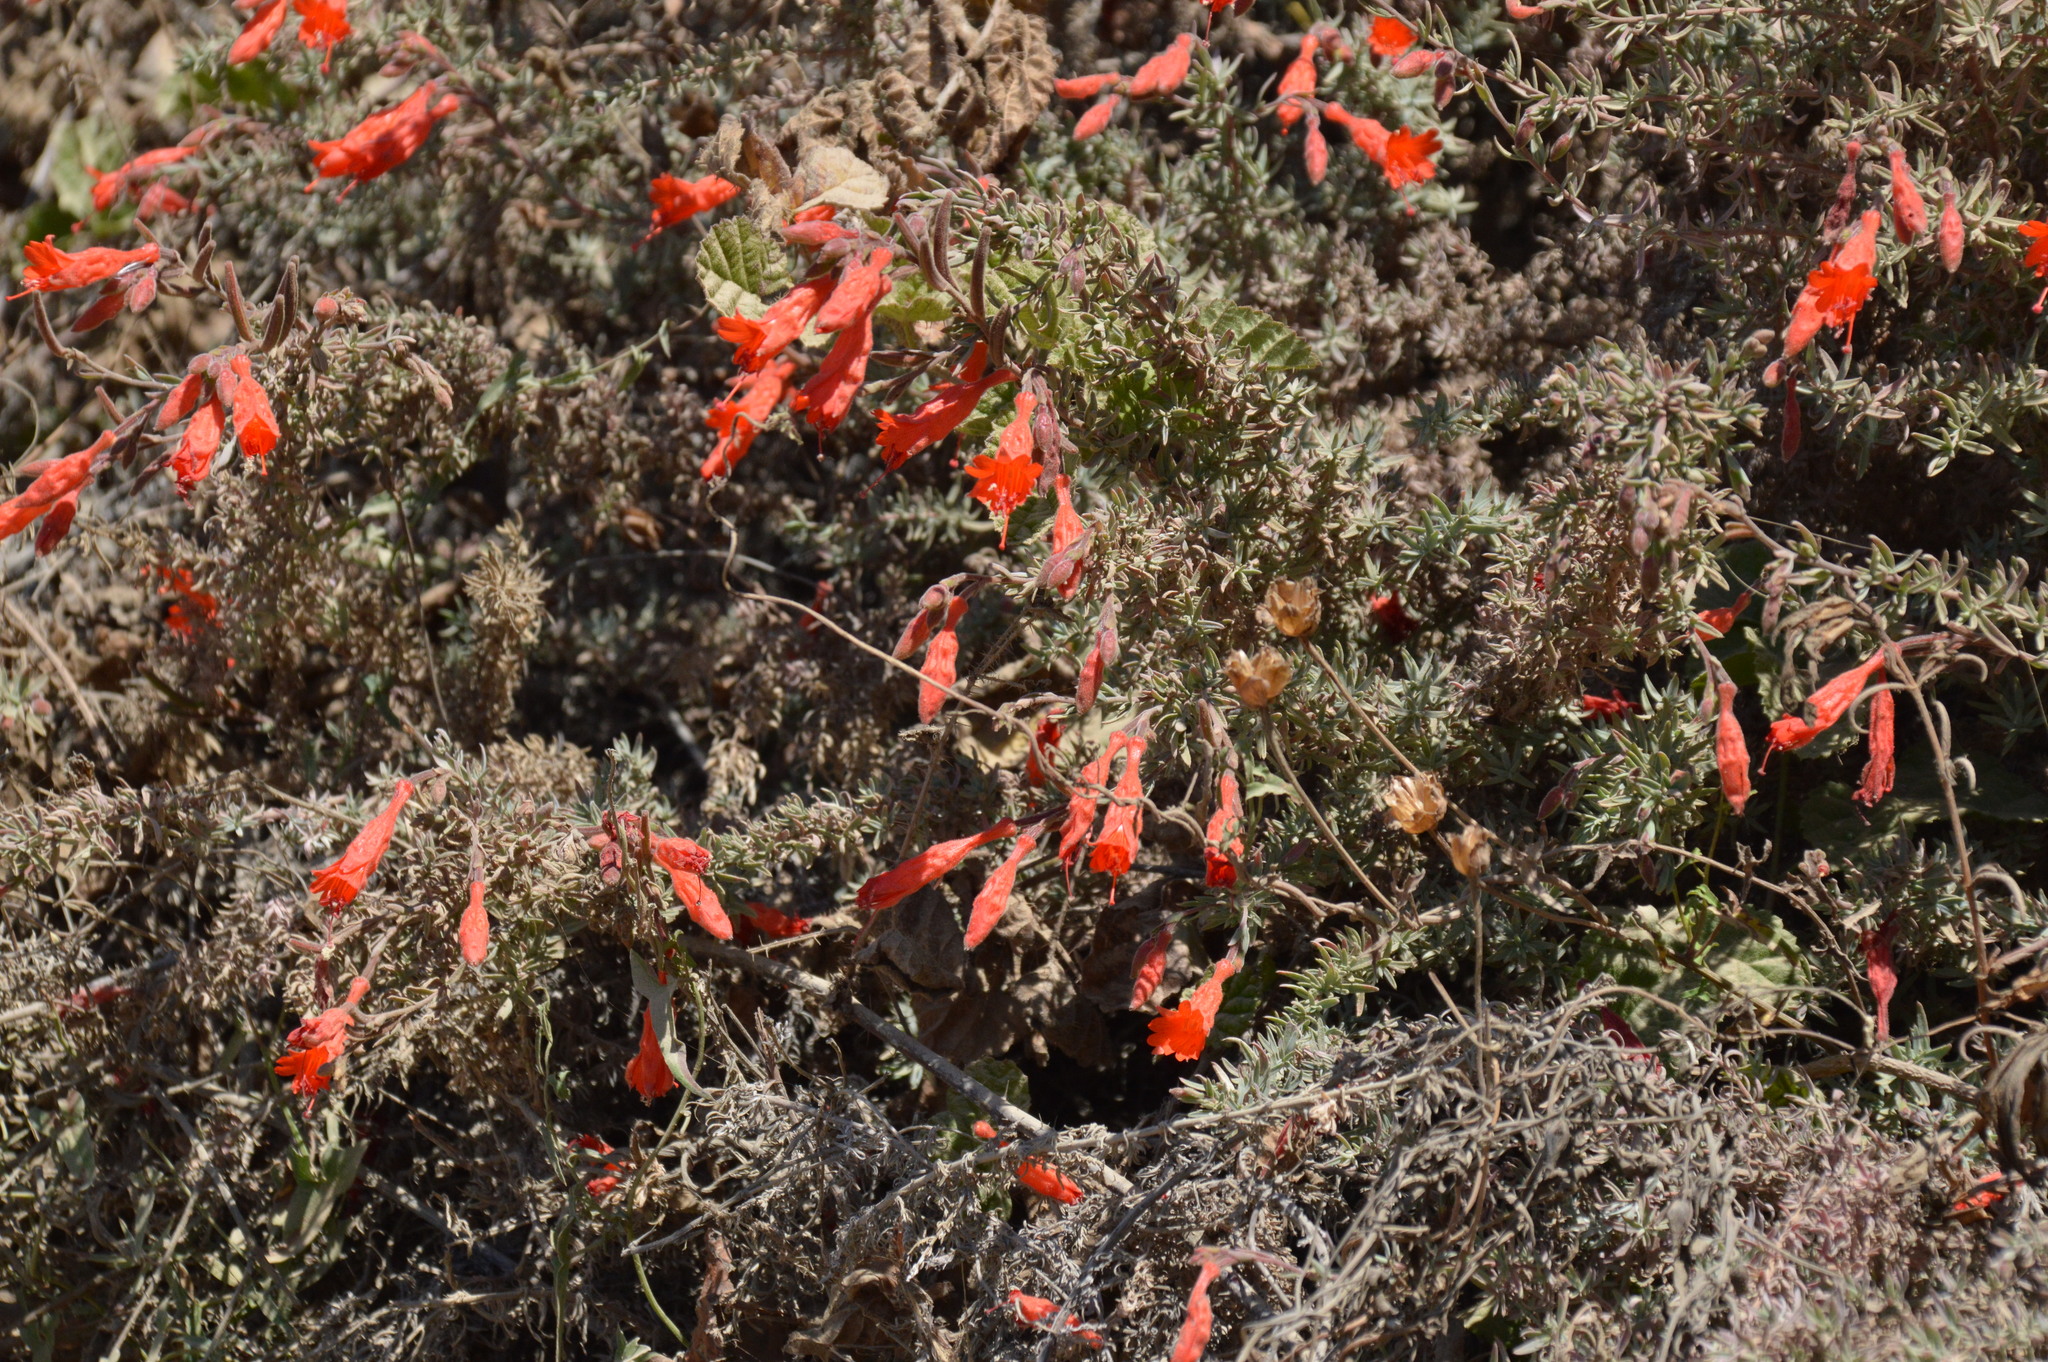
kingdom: Plantae
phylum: Tracheophyta
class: Magnoliopsida
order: Myrtales
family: Onagraceae
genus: Epilobium
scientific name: Epilobium canum
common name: California-fuchsia
